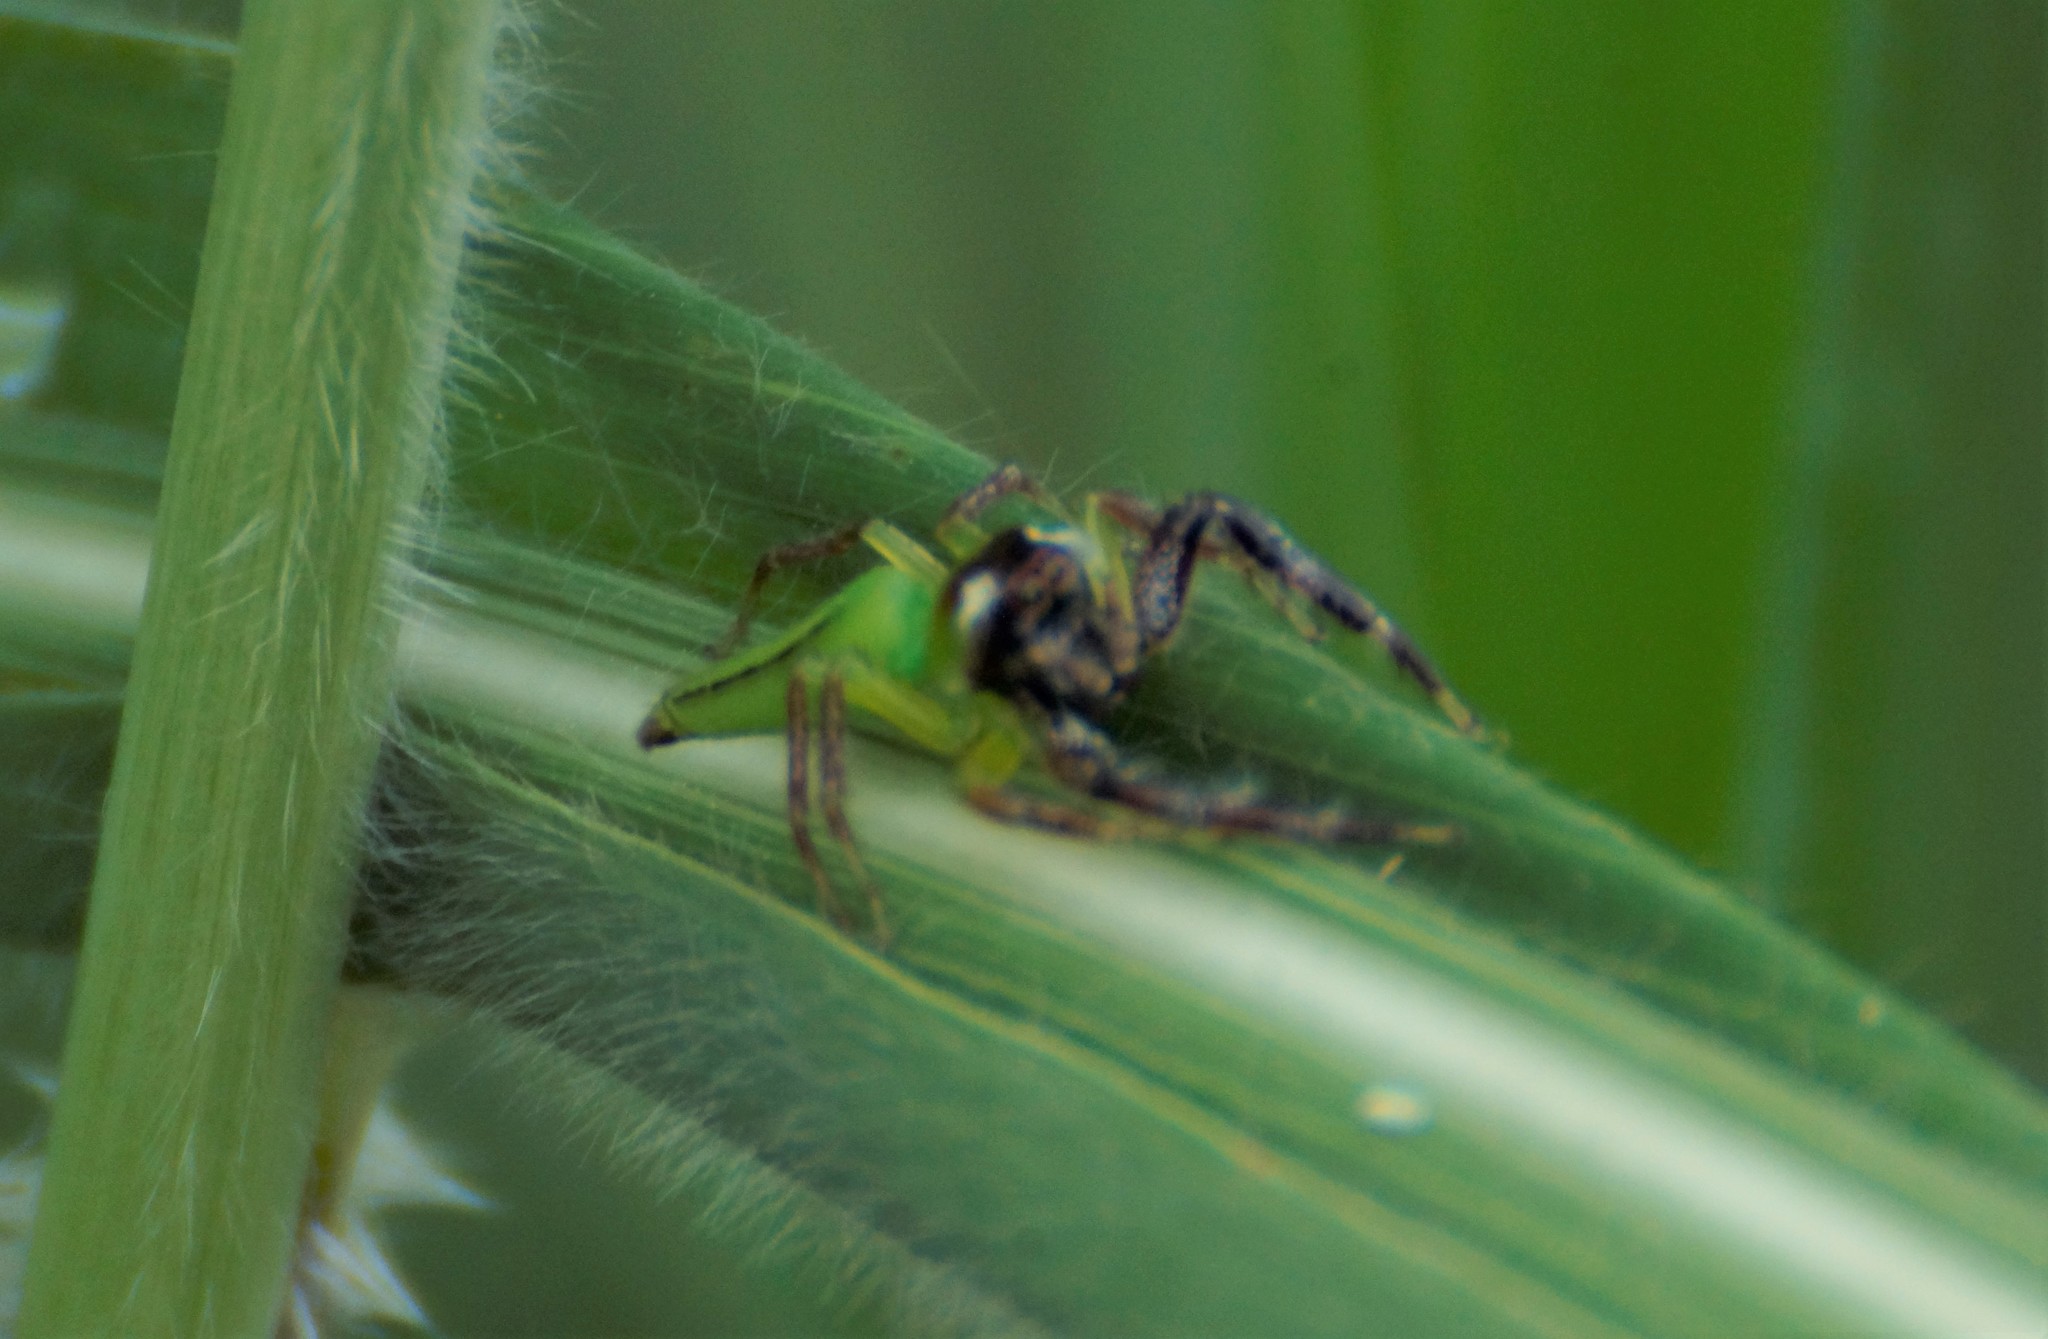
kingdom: Animalia
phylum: Arthropoda
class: Arachnida
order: Araneae
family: Salticidae
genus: Mopsus
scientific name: Mopsus mormon
